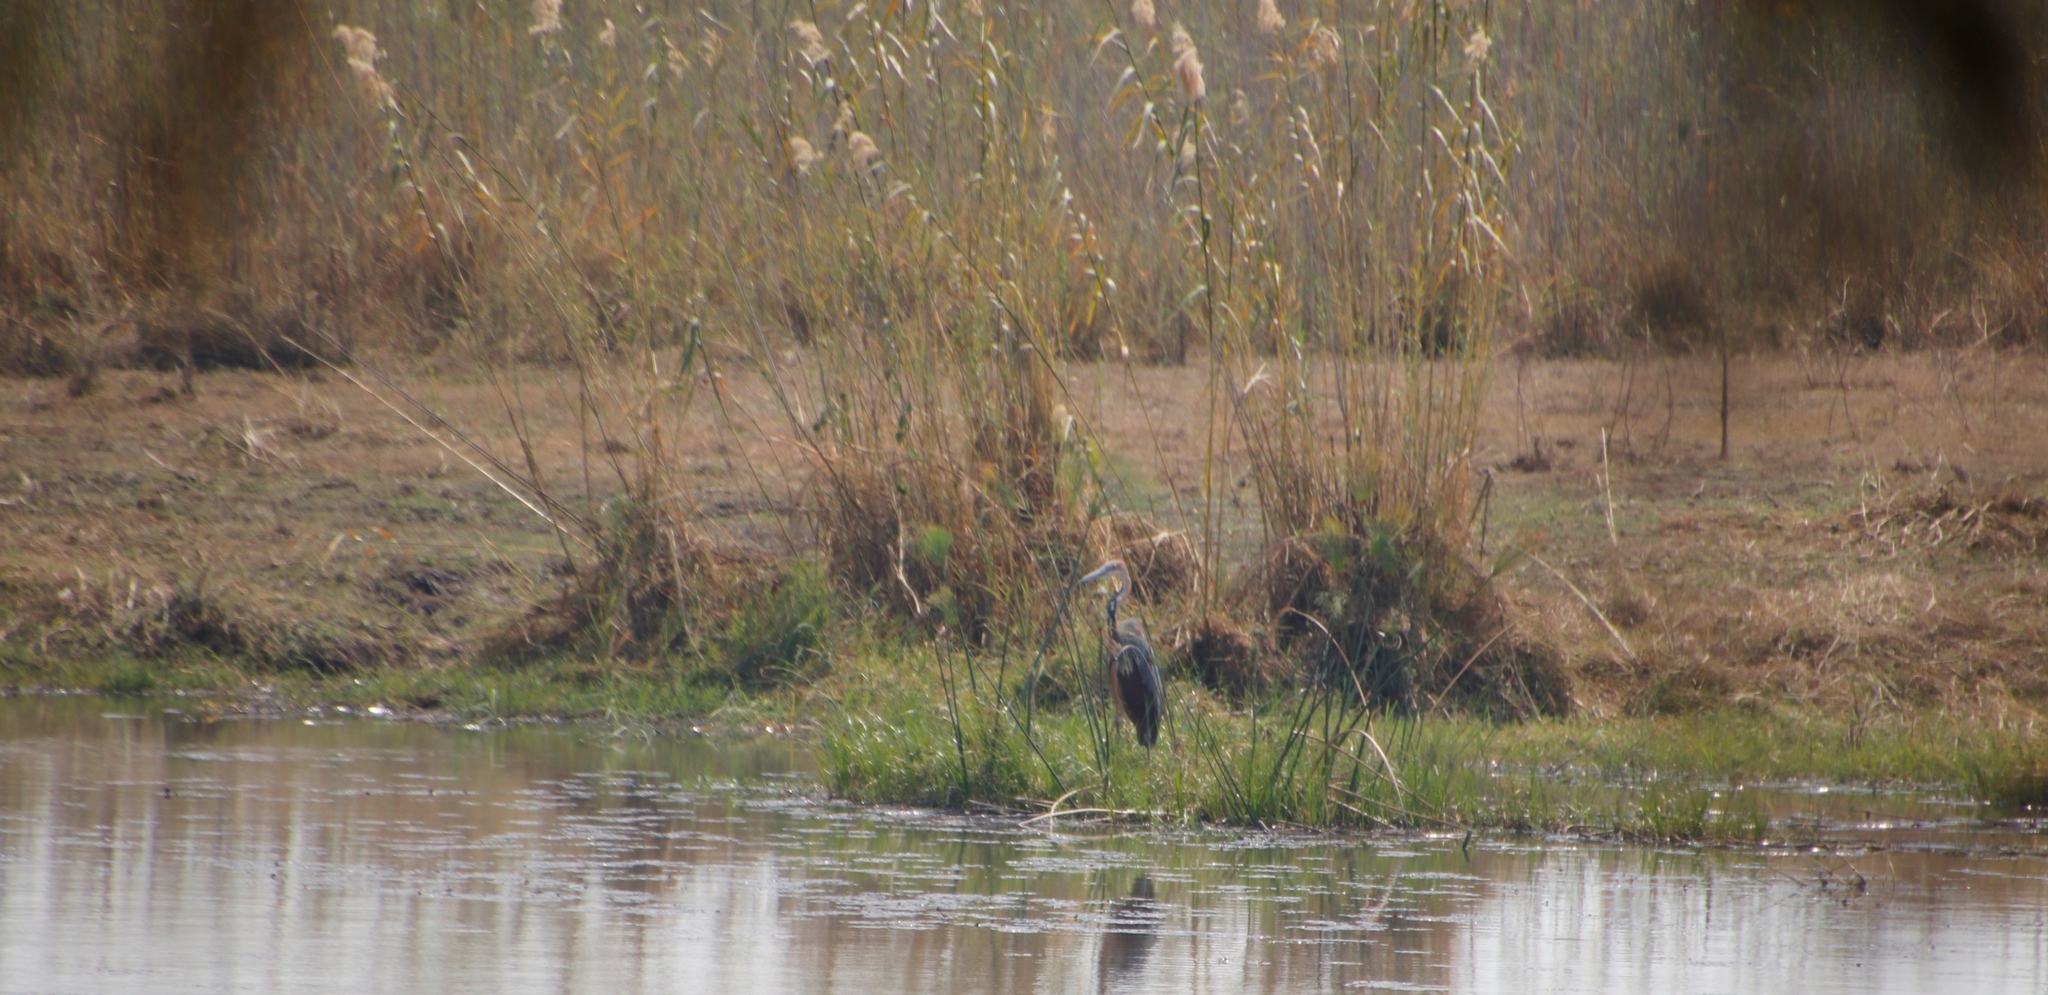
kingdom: Plantae
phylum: Tracheophyta
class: Liliopsida
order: Poales
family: Poaceae
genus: Phragmites
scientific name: Phragmites australis
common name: Common reed
